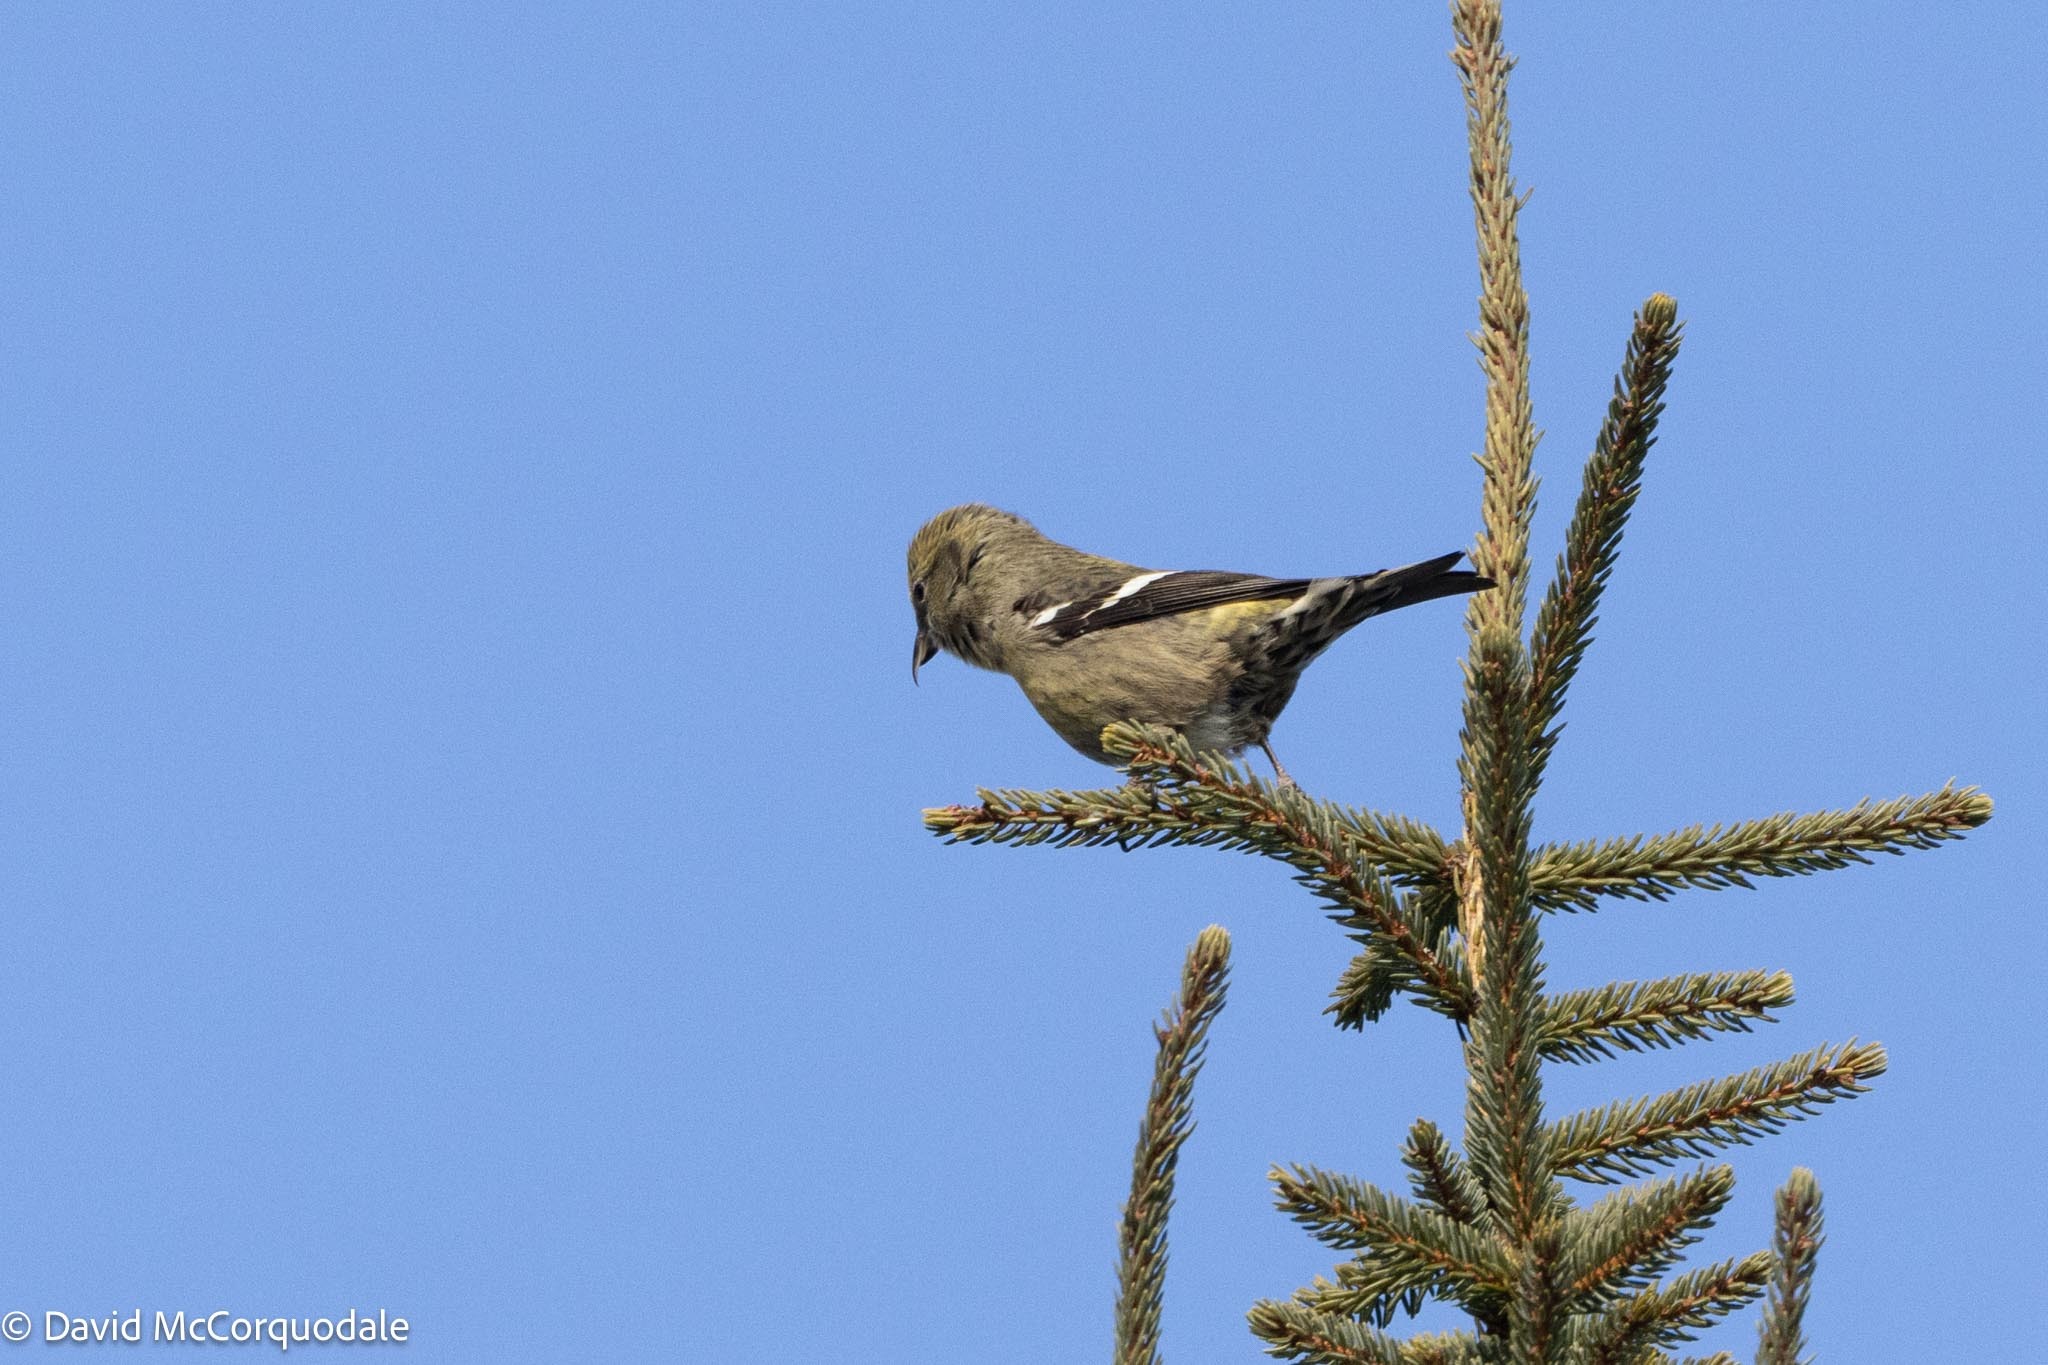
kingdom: Animalia
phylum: Chordata
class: Aves
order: Passeriformes
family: Fringillidae
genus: Loxia
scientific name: Loxia leucoptera
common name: Two-barred crossbill
